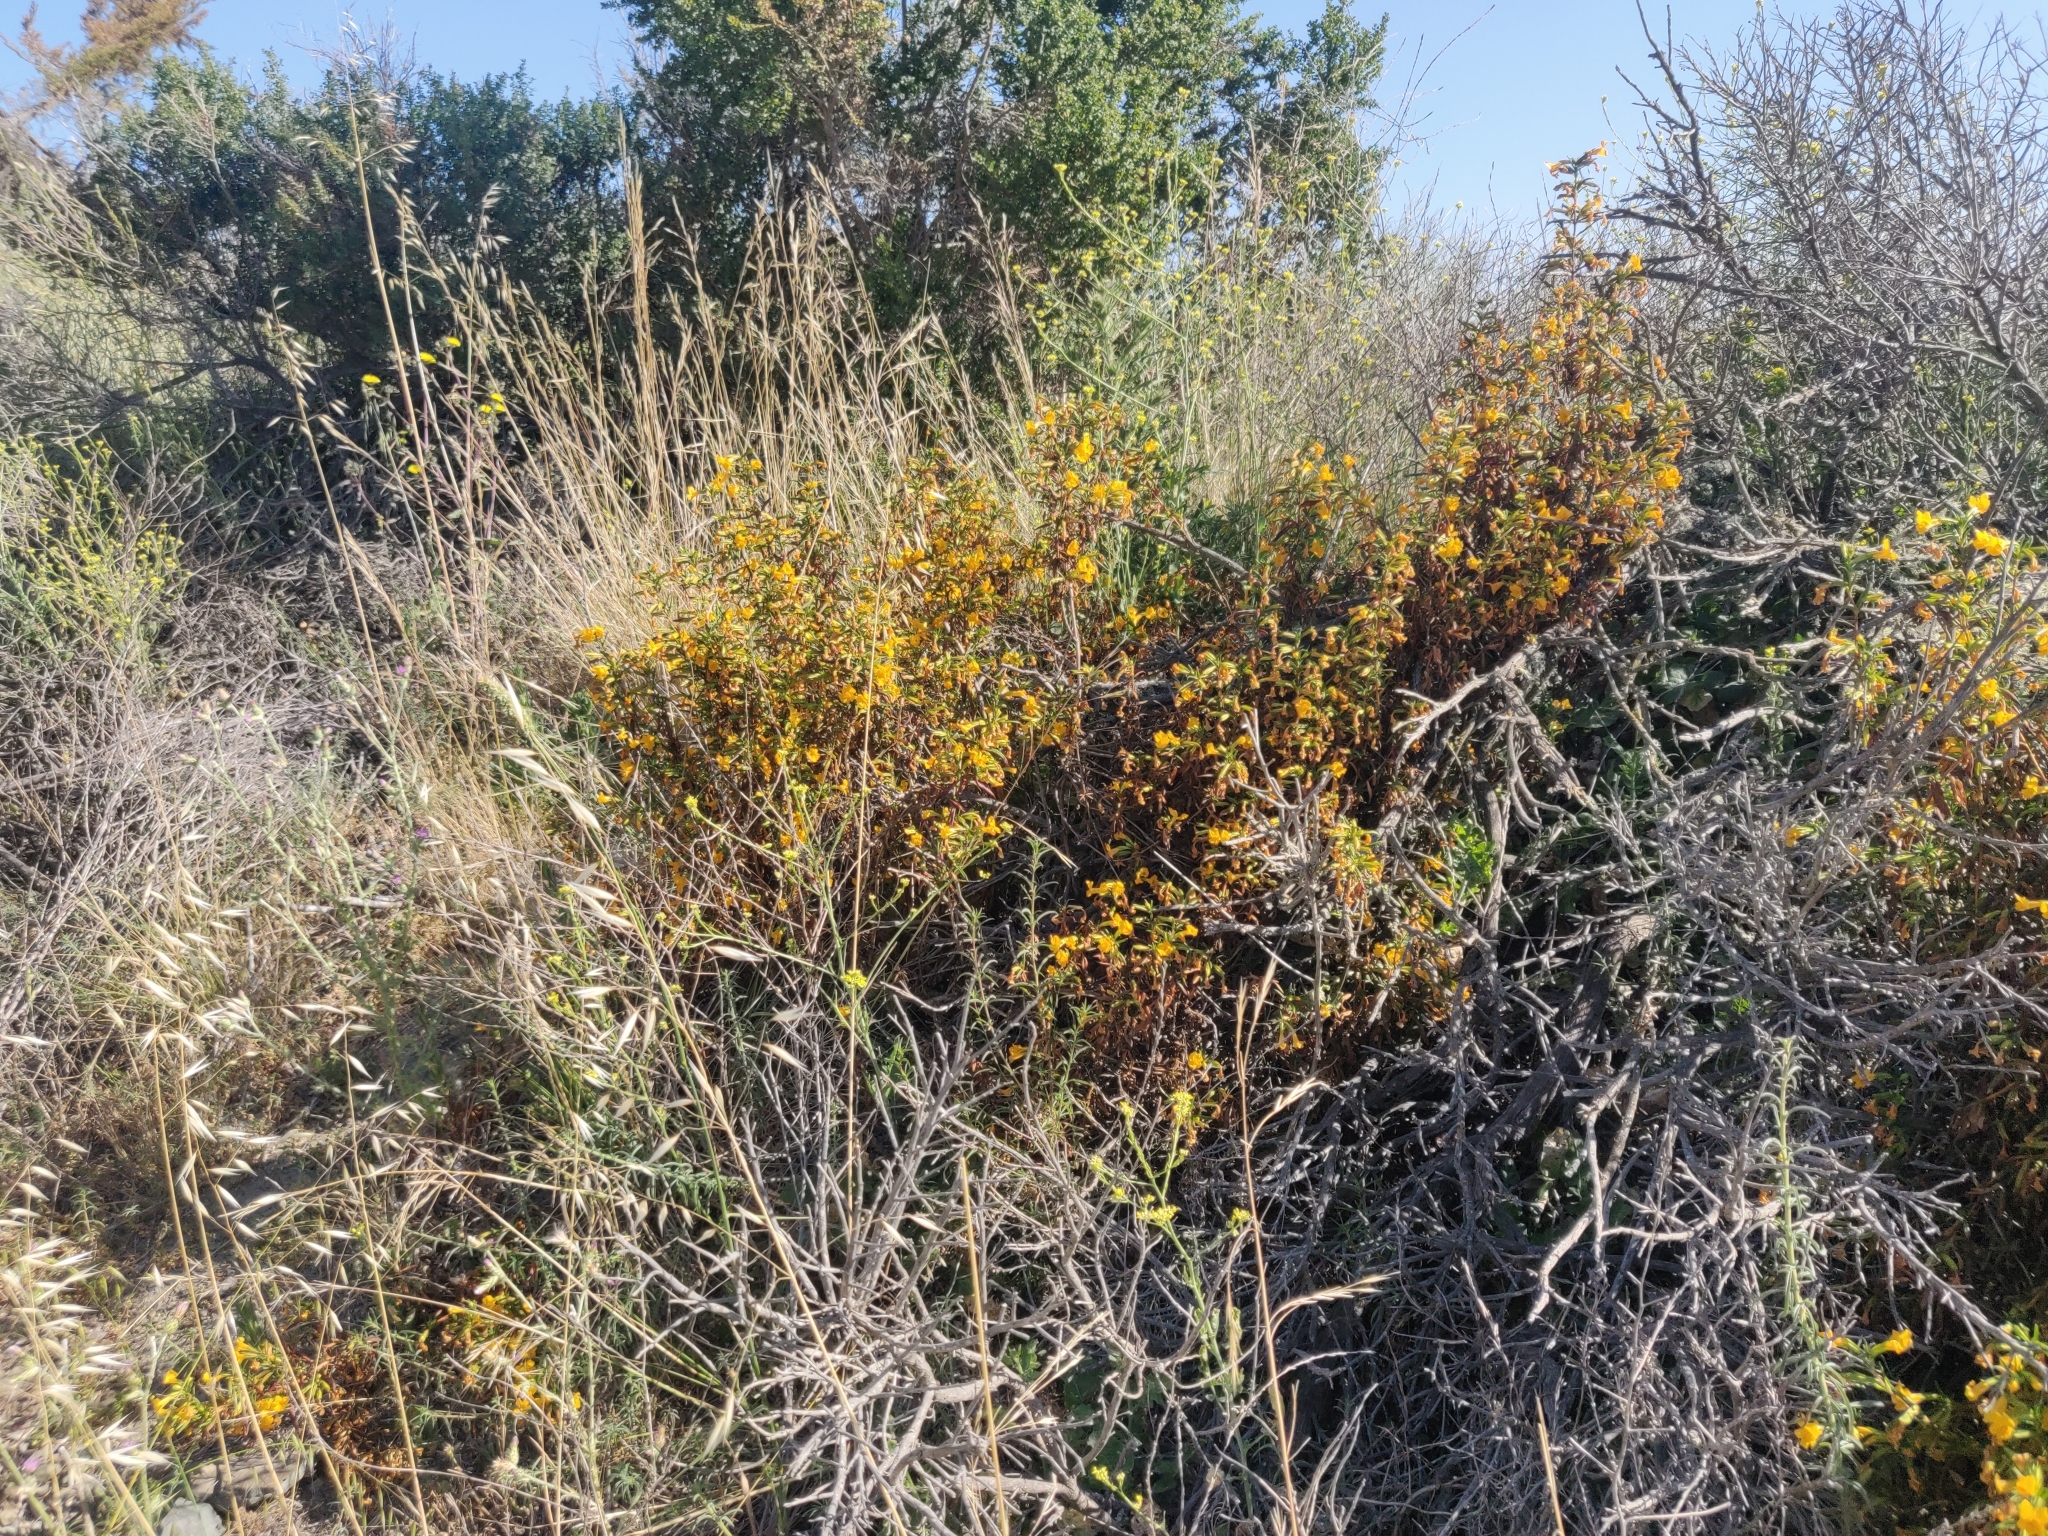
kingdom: Plantae
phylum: Tracheophyta
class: Magnoliopsida
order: Lamiales
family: Phrymaceae
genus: Diplacus
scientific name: Diplacus aurantiacus
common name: Bush monkey-flower
